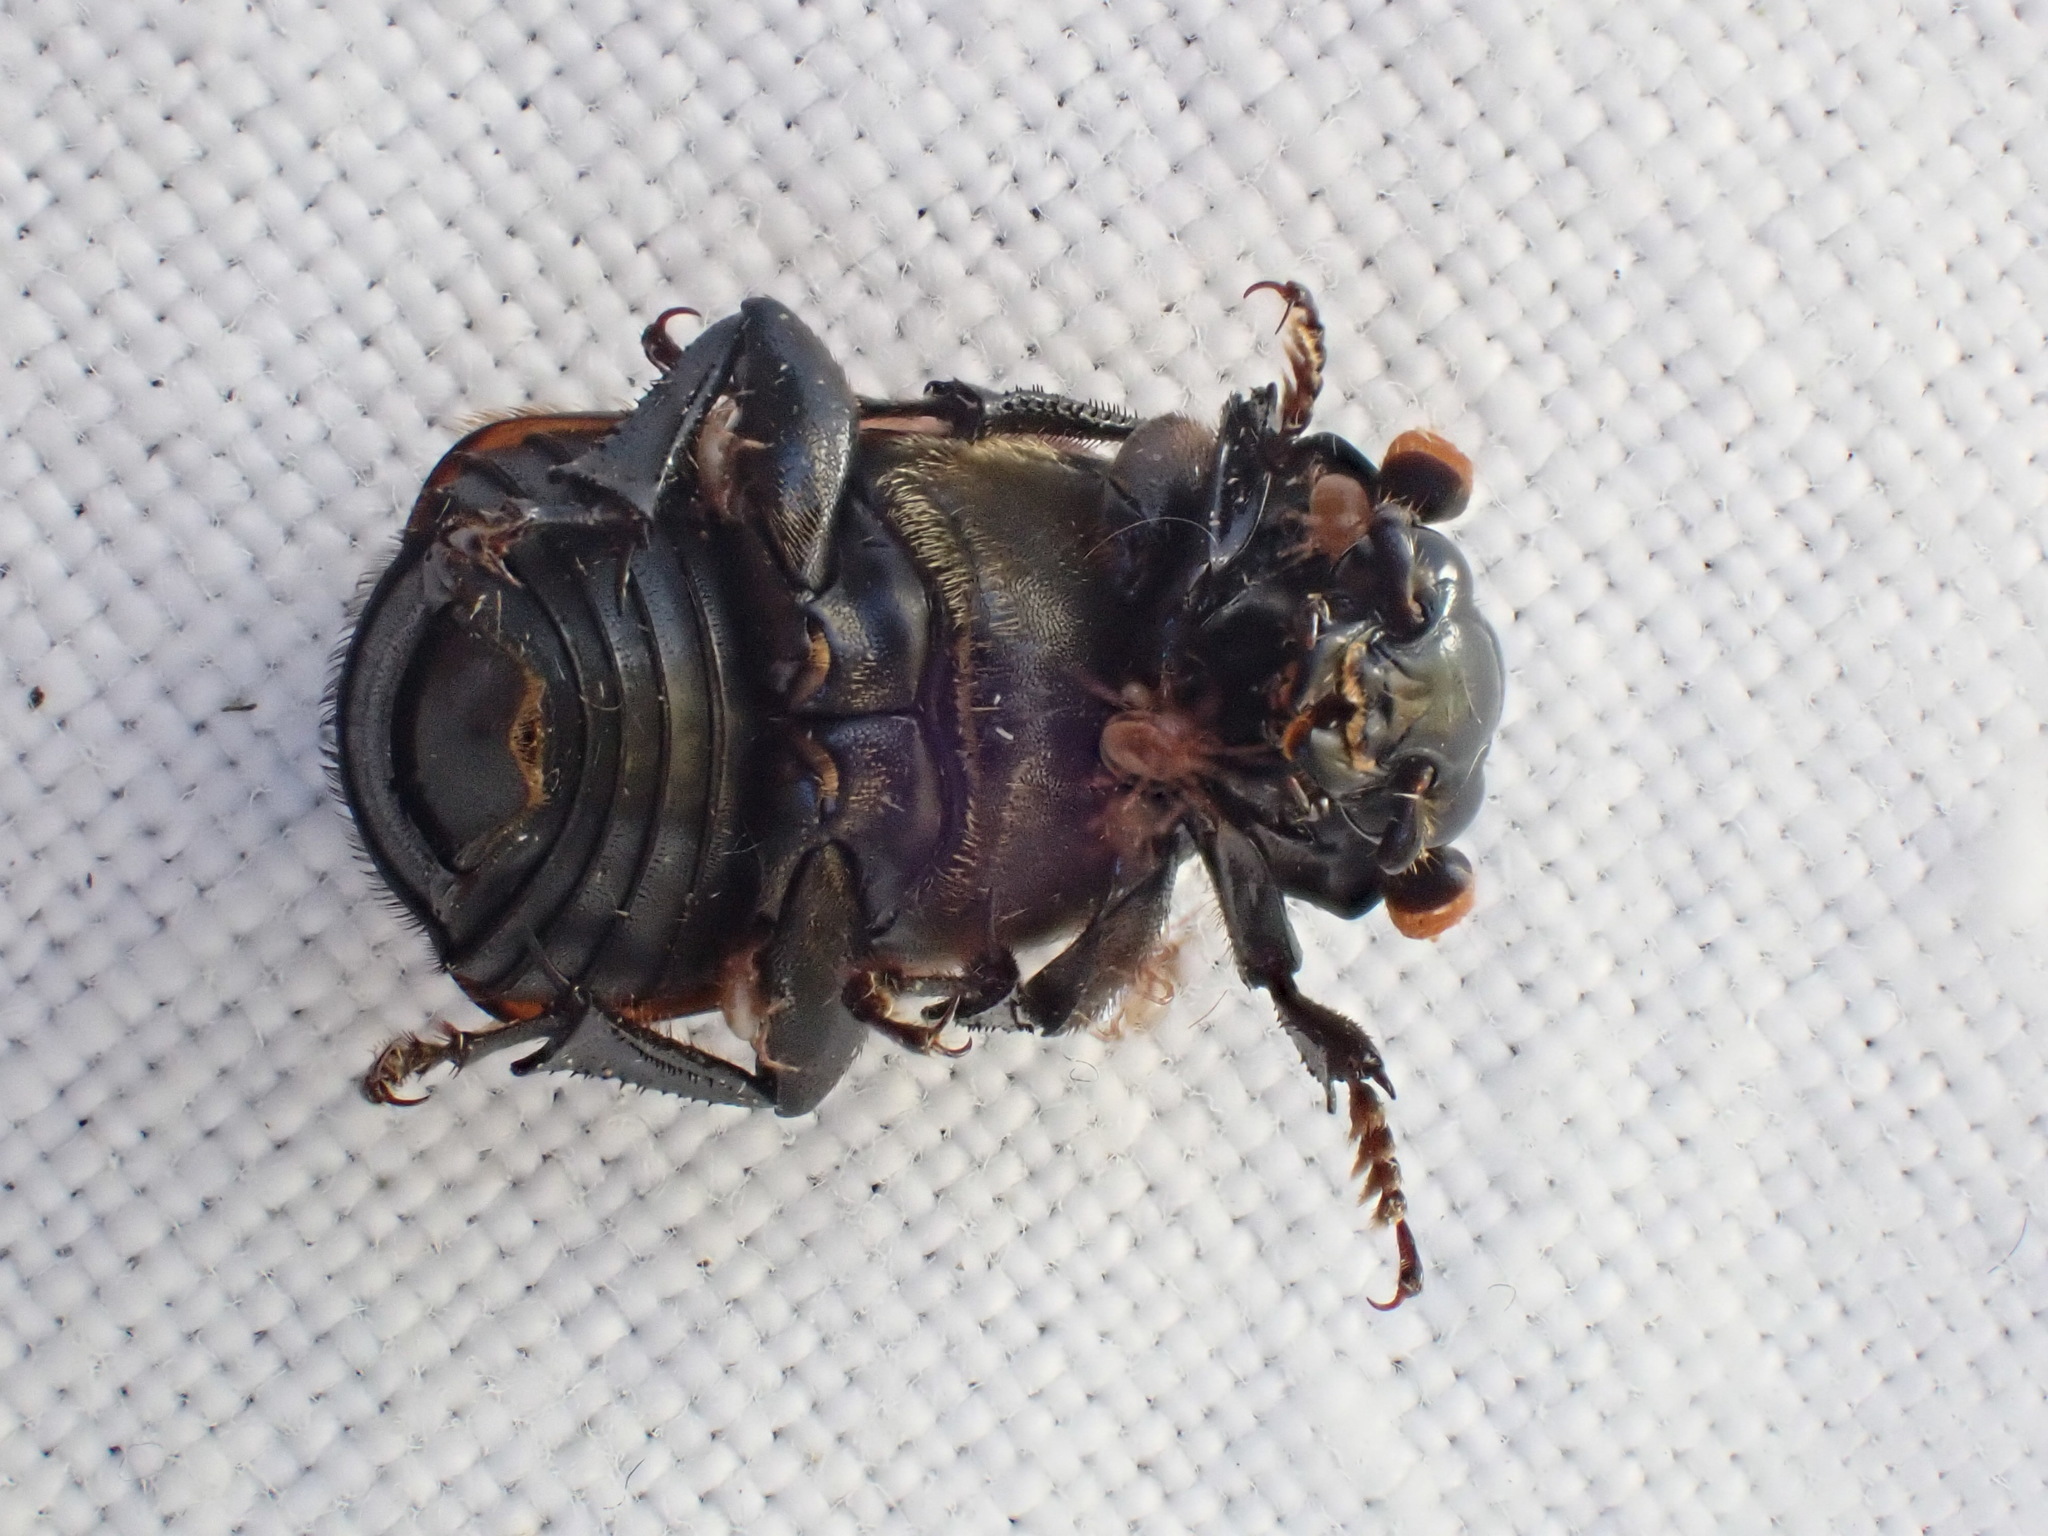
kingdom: Animalia
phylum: Arthropoda
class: Insecta
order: Coleoptera
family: Staphylinidae
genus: Nicrophorus
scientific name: Nicrophorus investigator
